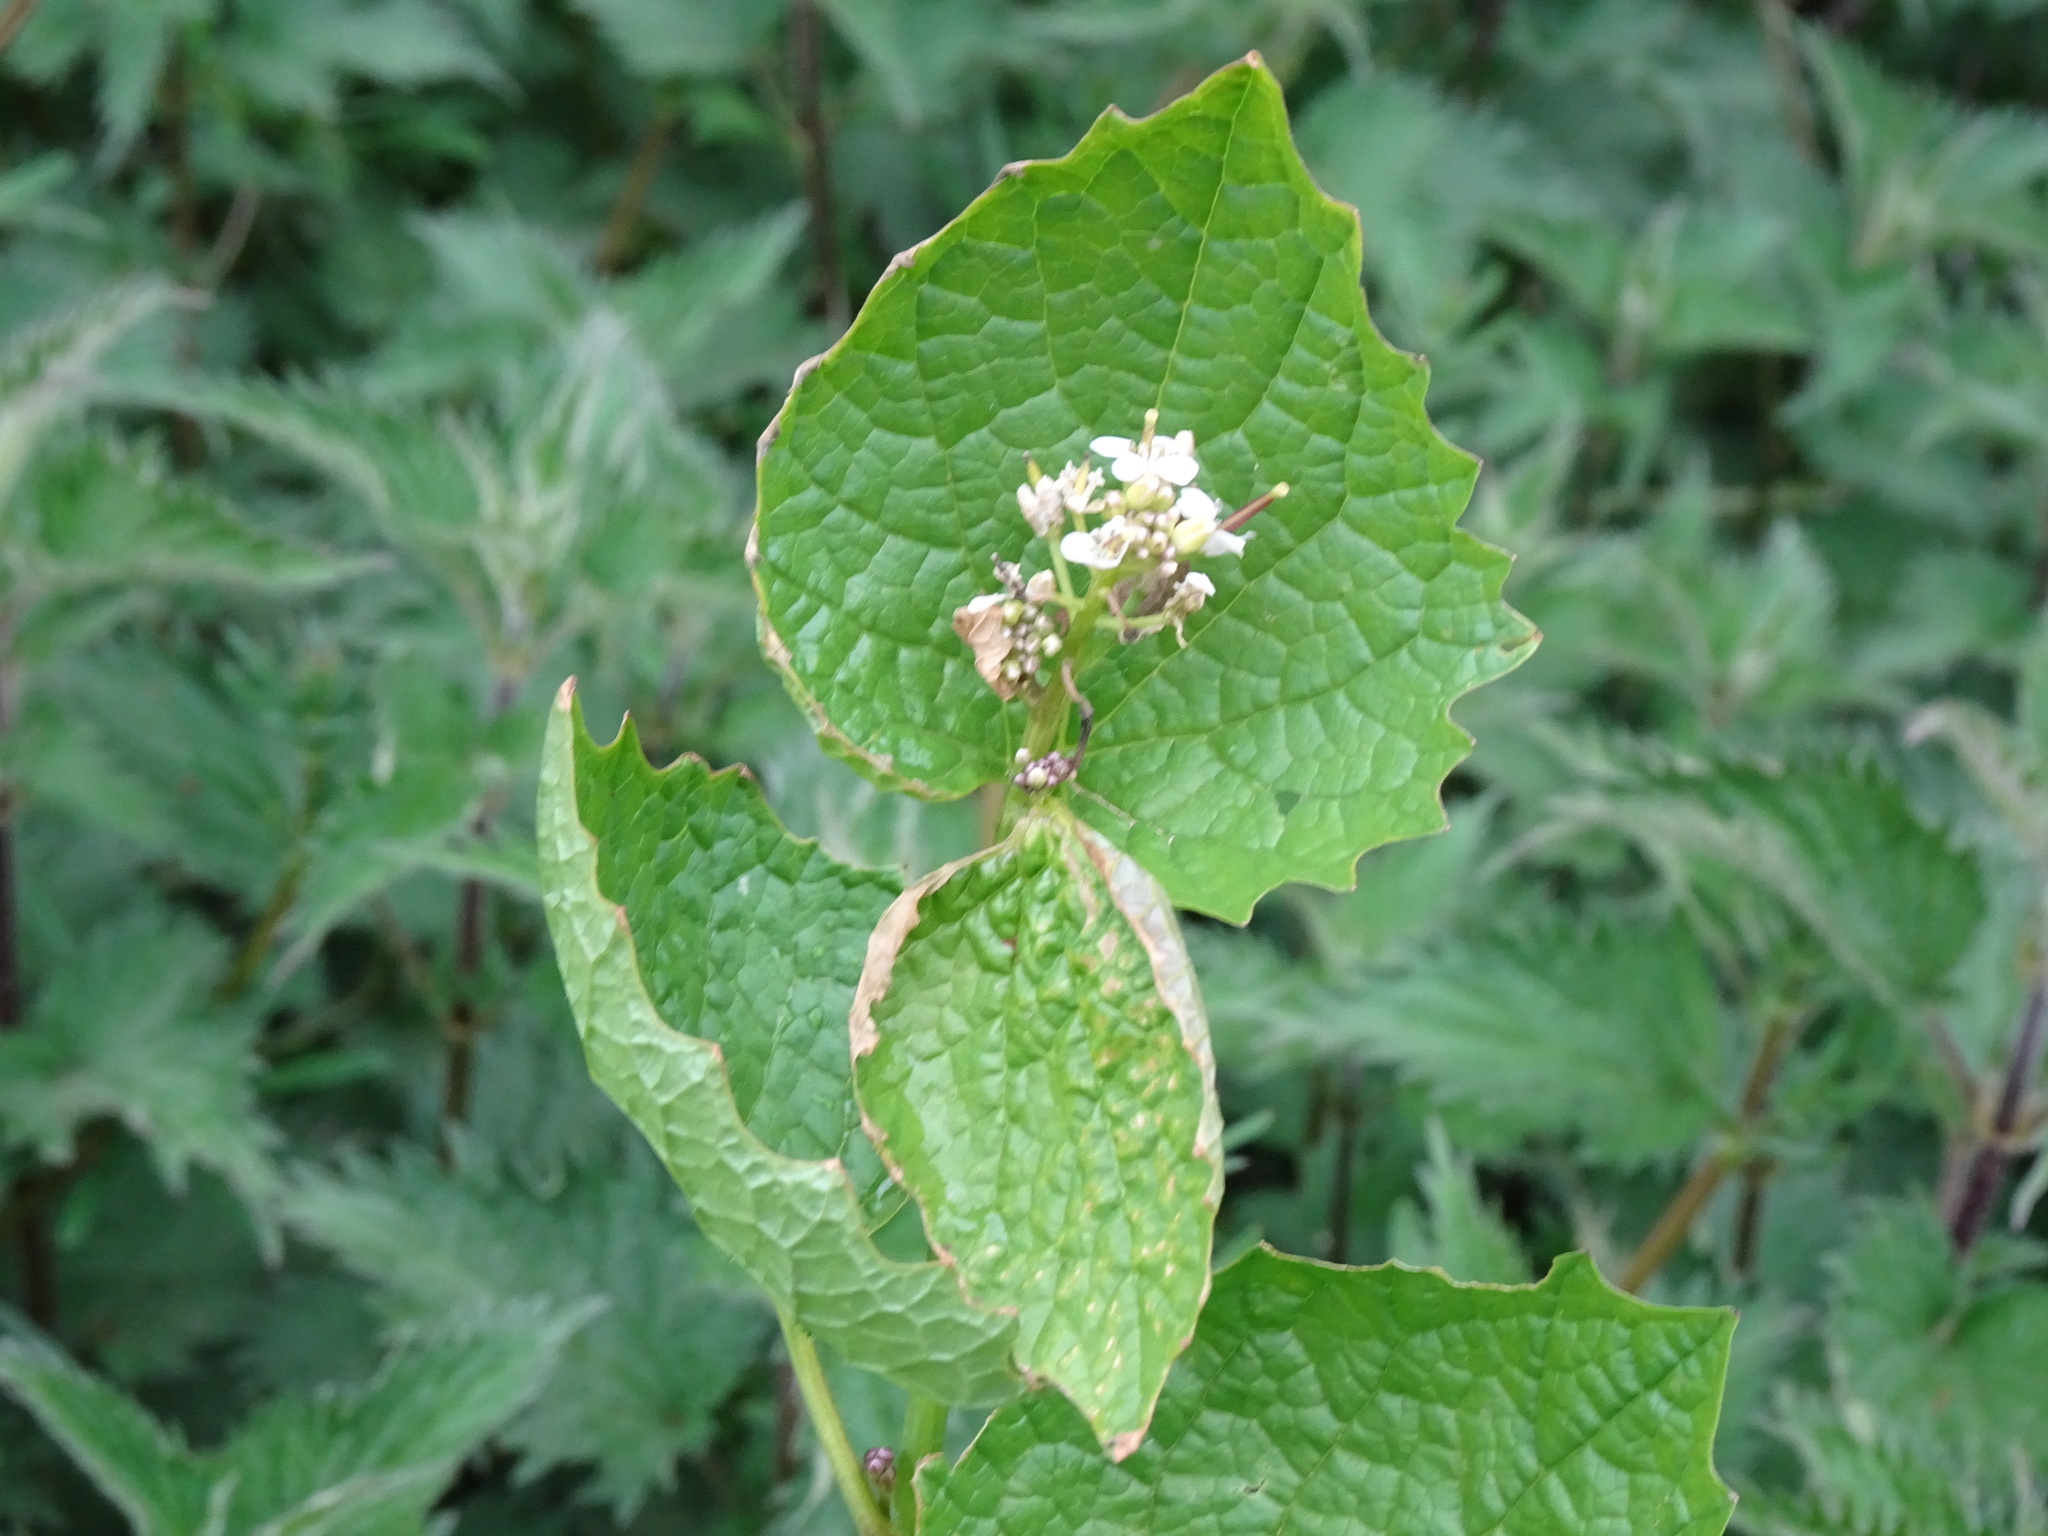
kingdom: Plantae
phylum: Tracheophyta
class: Magnoliopsida
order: Brassicales
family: Brassicaceae
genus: Alliaria
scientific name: Alliaria petiolata
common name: Garlic mustard
